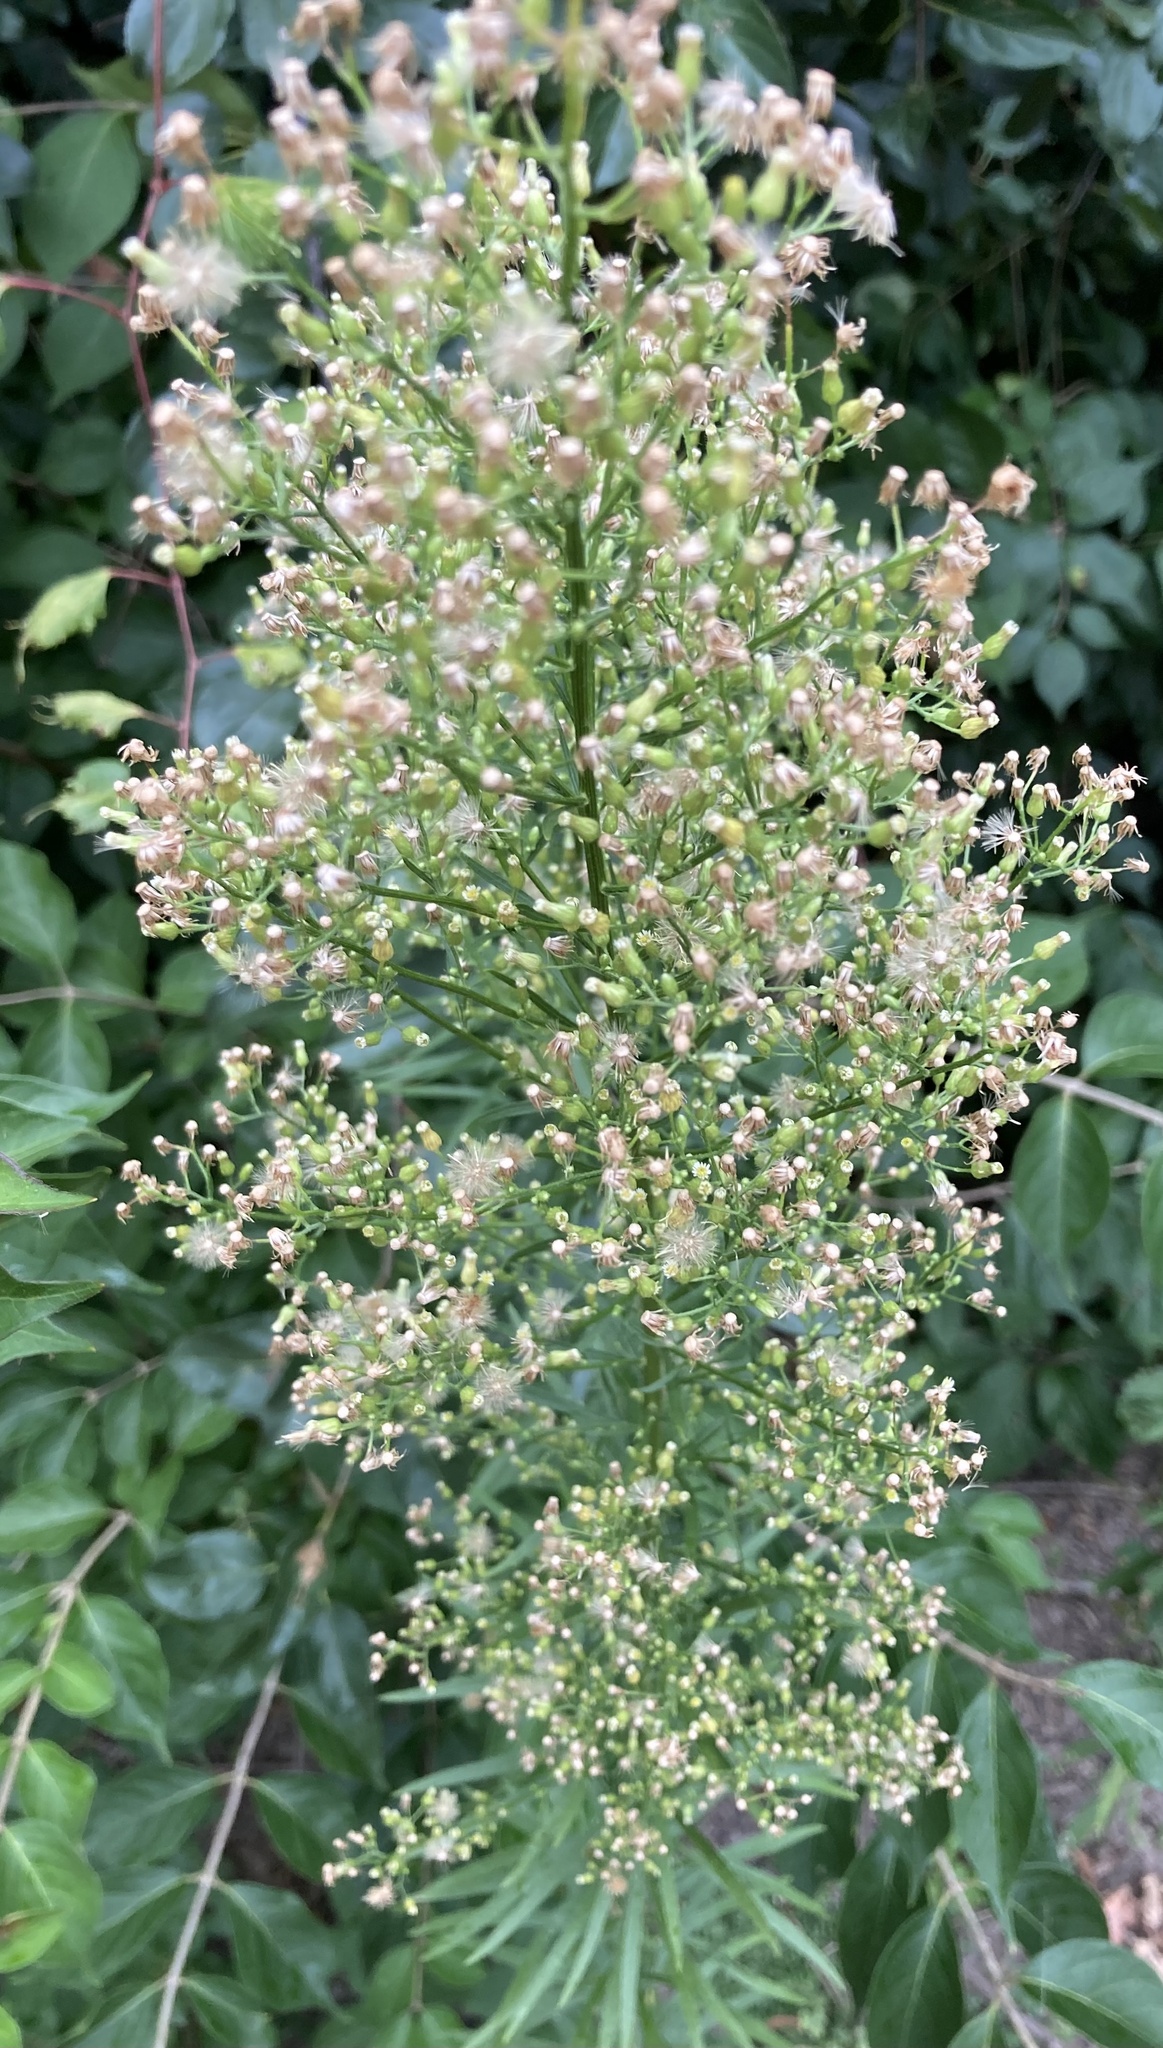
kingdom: Plantae
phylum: Tracheophyta
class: Magnoliopsida
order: Asterales
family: Asteraceae
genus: Erigeron
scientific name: Erigeron canadensis
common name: Canadian fleabane
